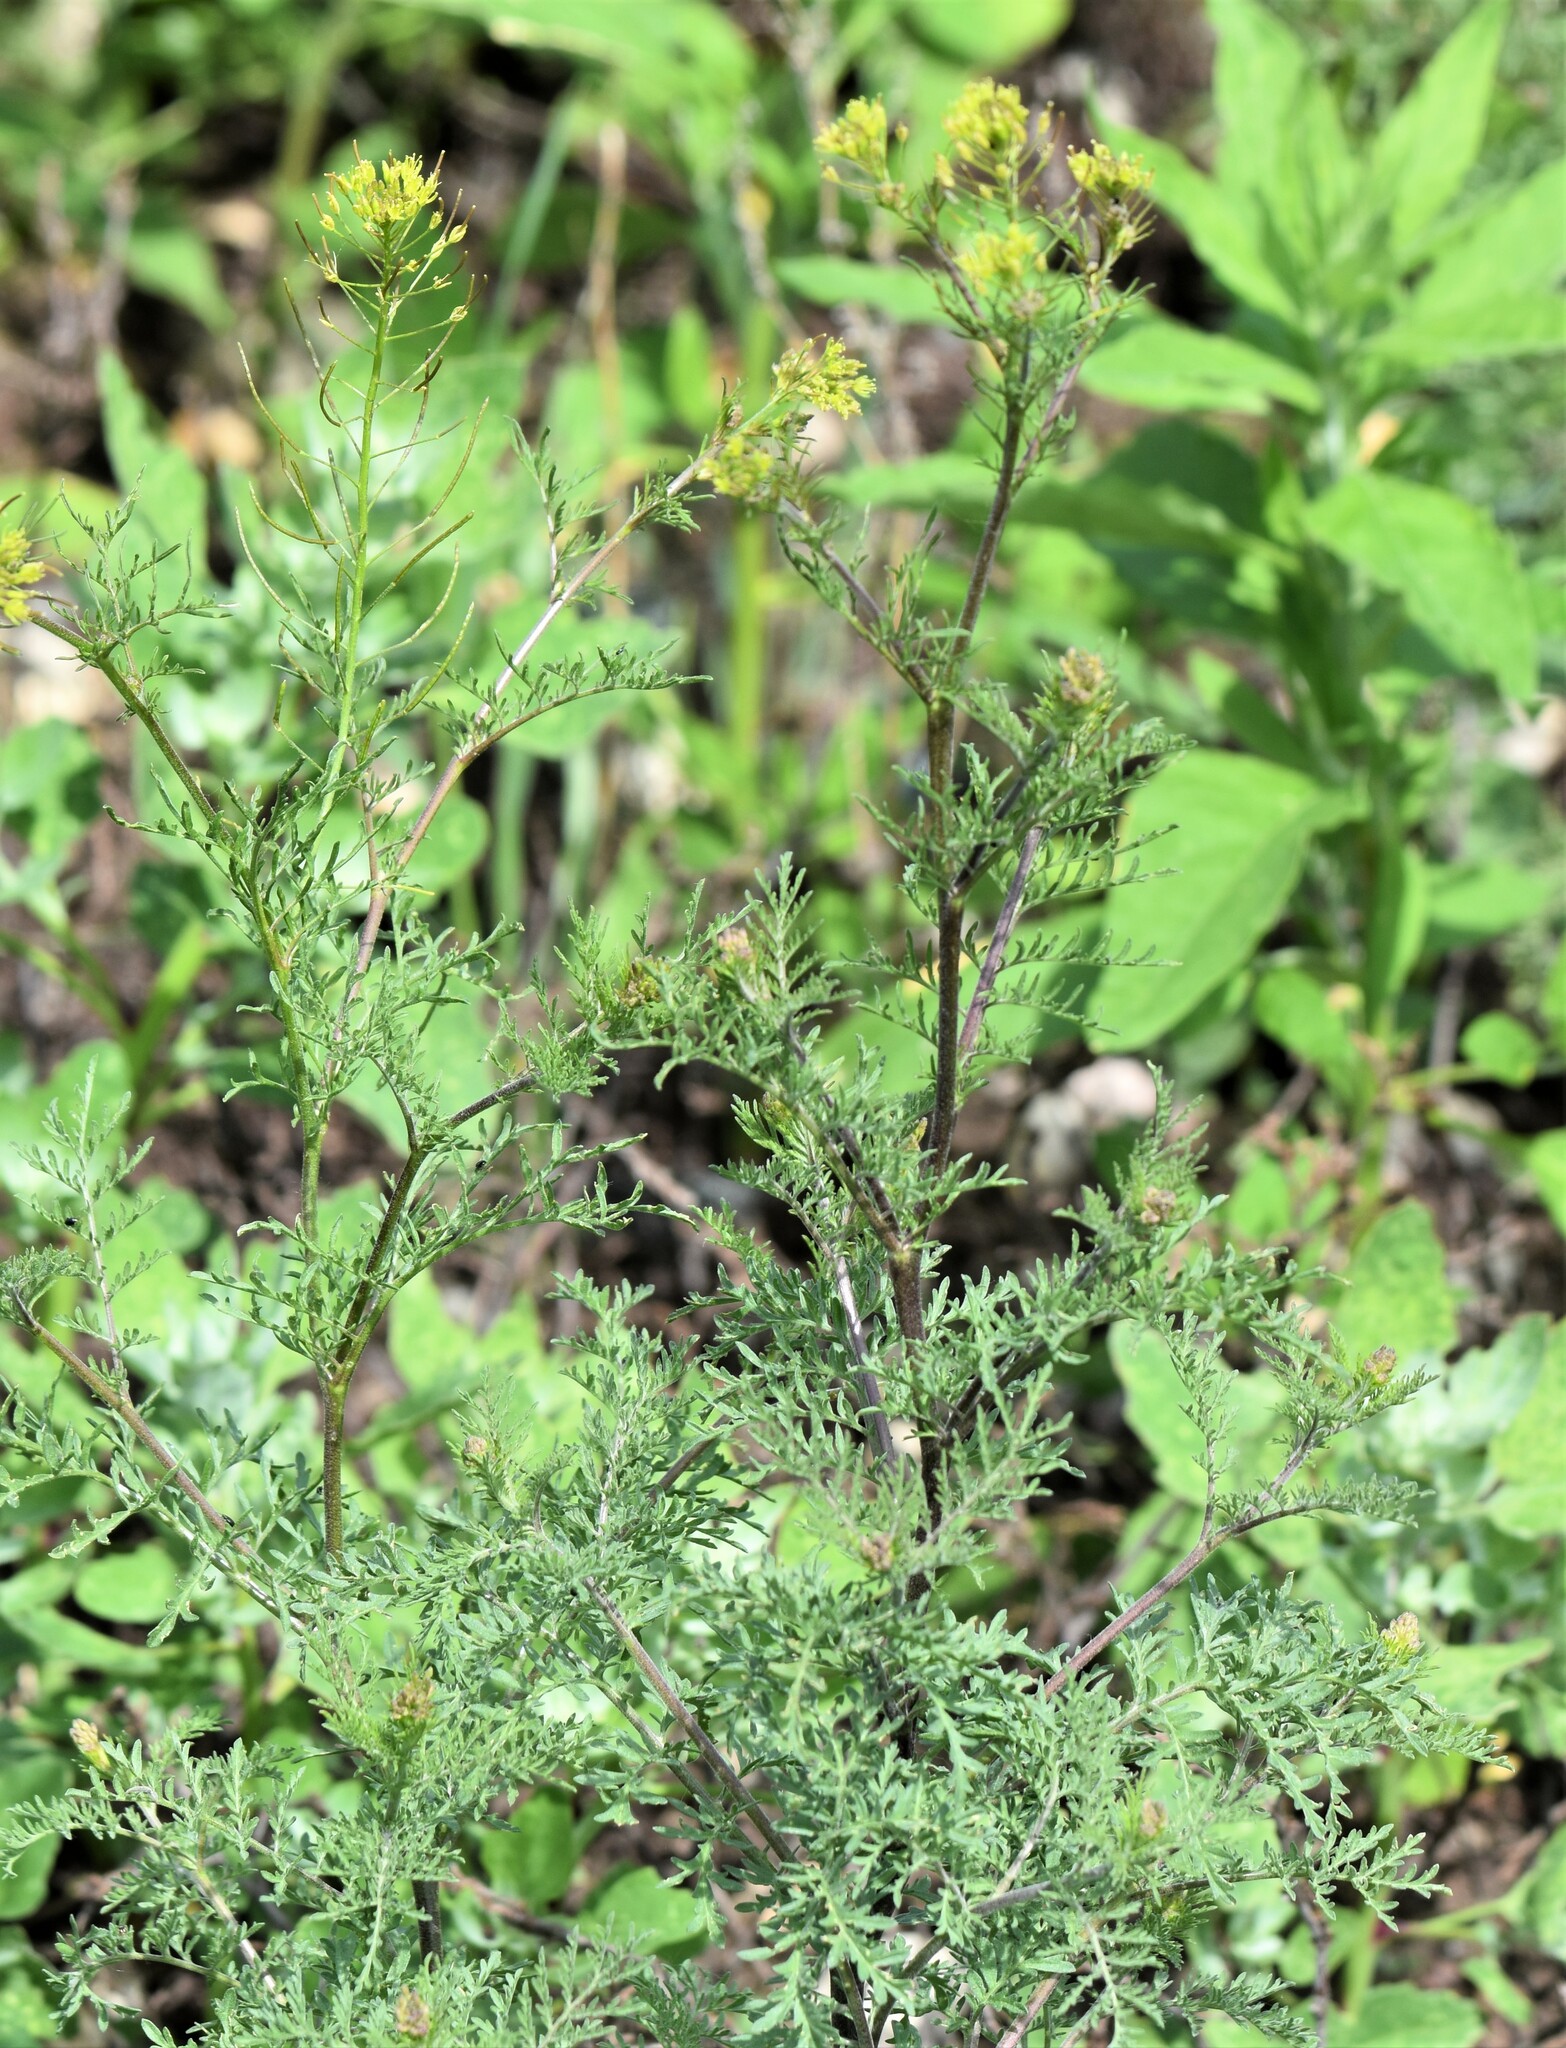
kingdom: Plantae
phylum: Tracheophyta
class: Magnoliopsida
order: Brassicales
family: Brassicaceae
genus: Descurainia
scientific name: Descurainia sophia
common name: Flixweed
